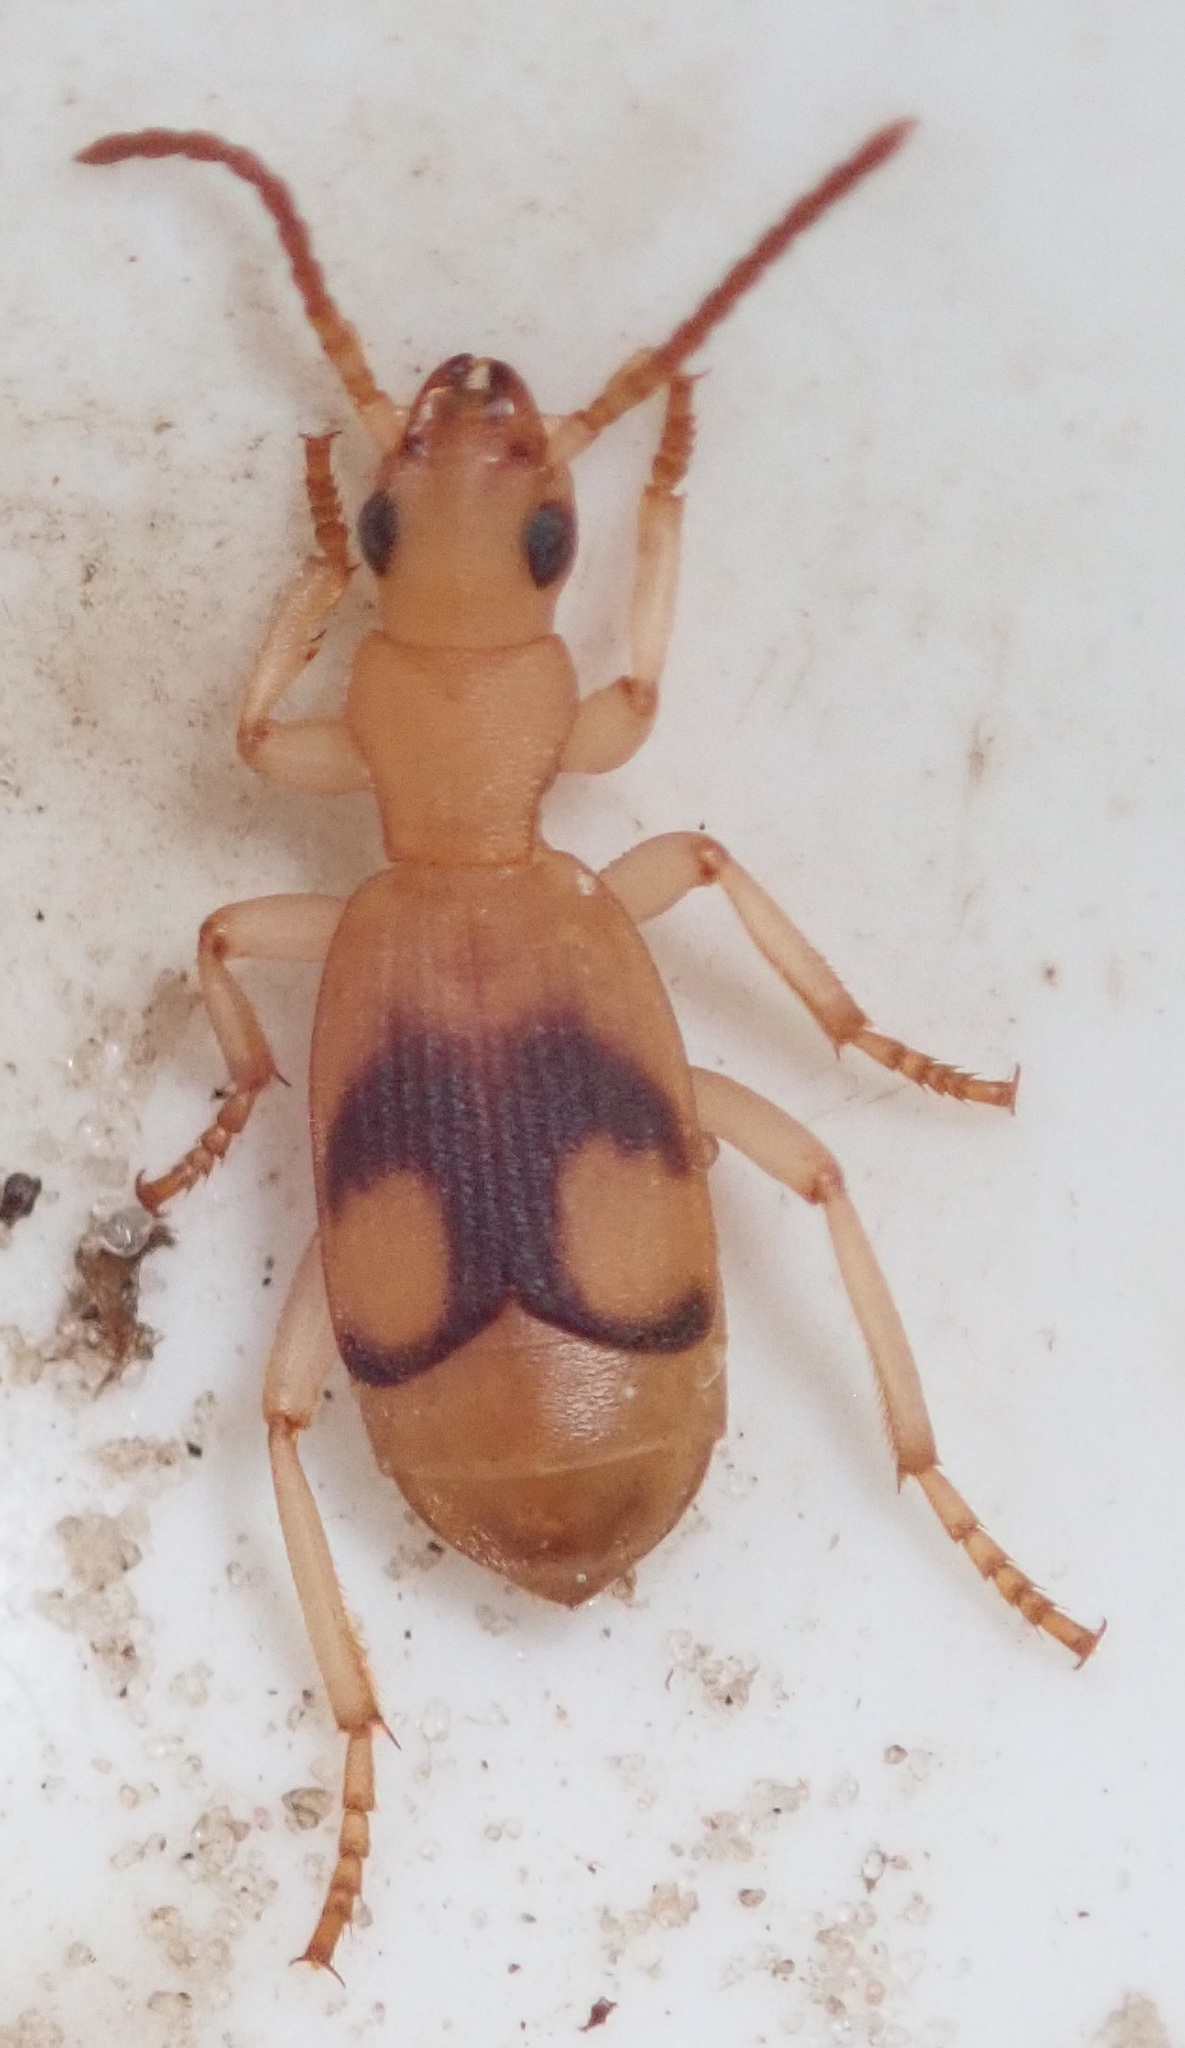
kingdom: Animalia
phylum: Arthropoda
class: Insecta
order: Coleoptera
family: Carabidae
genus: Crepidogaster
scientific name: Crepidogaster reducta
